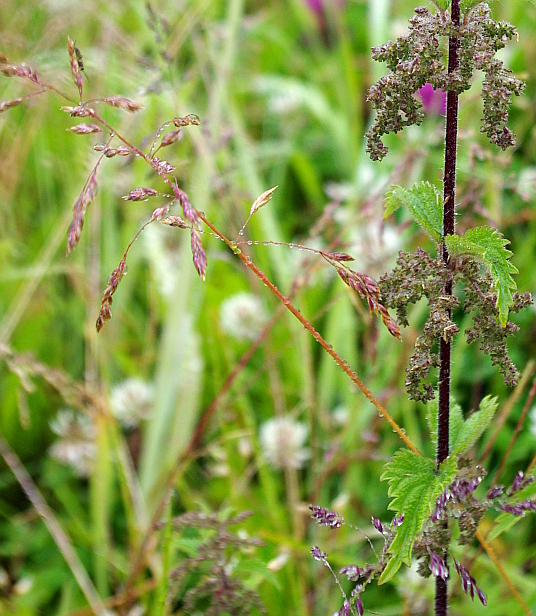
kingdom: Plantae
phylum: Tracheophyta
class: Liliopsida
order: Poales
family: Poaceae
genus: Poa
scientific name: Poa pratensis
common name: Kentucky bluegrass
